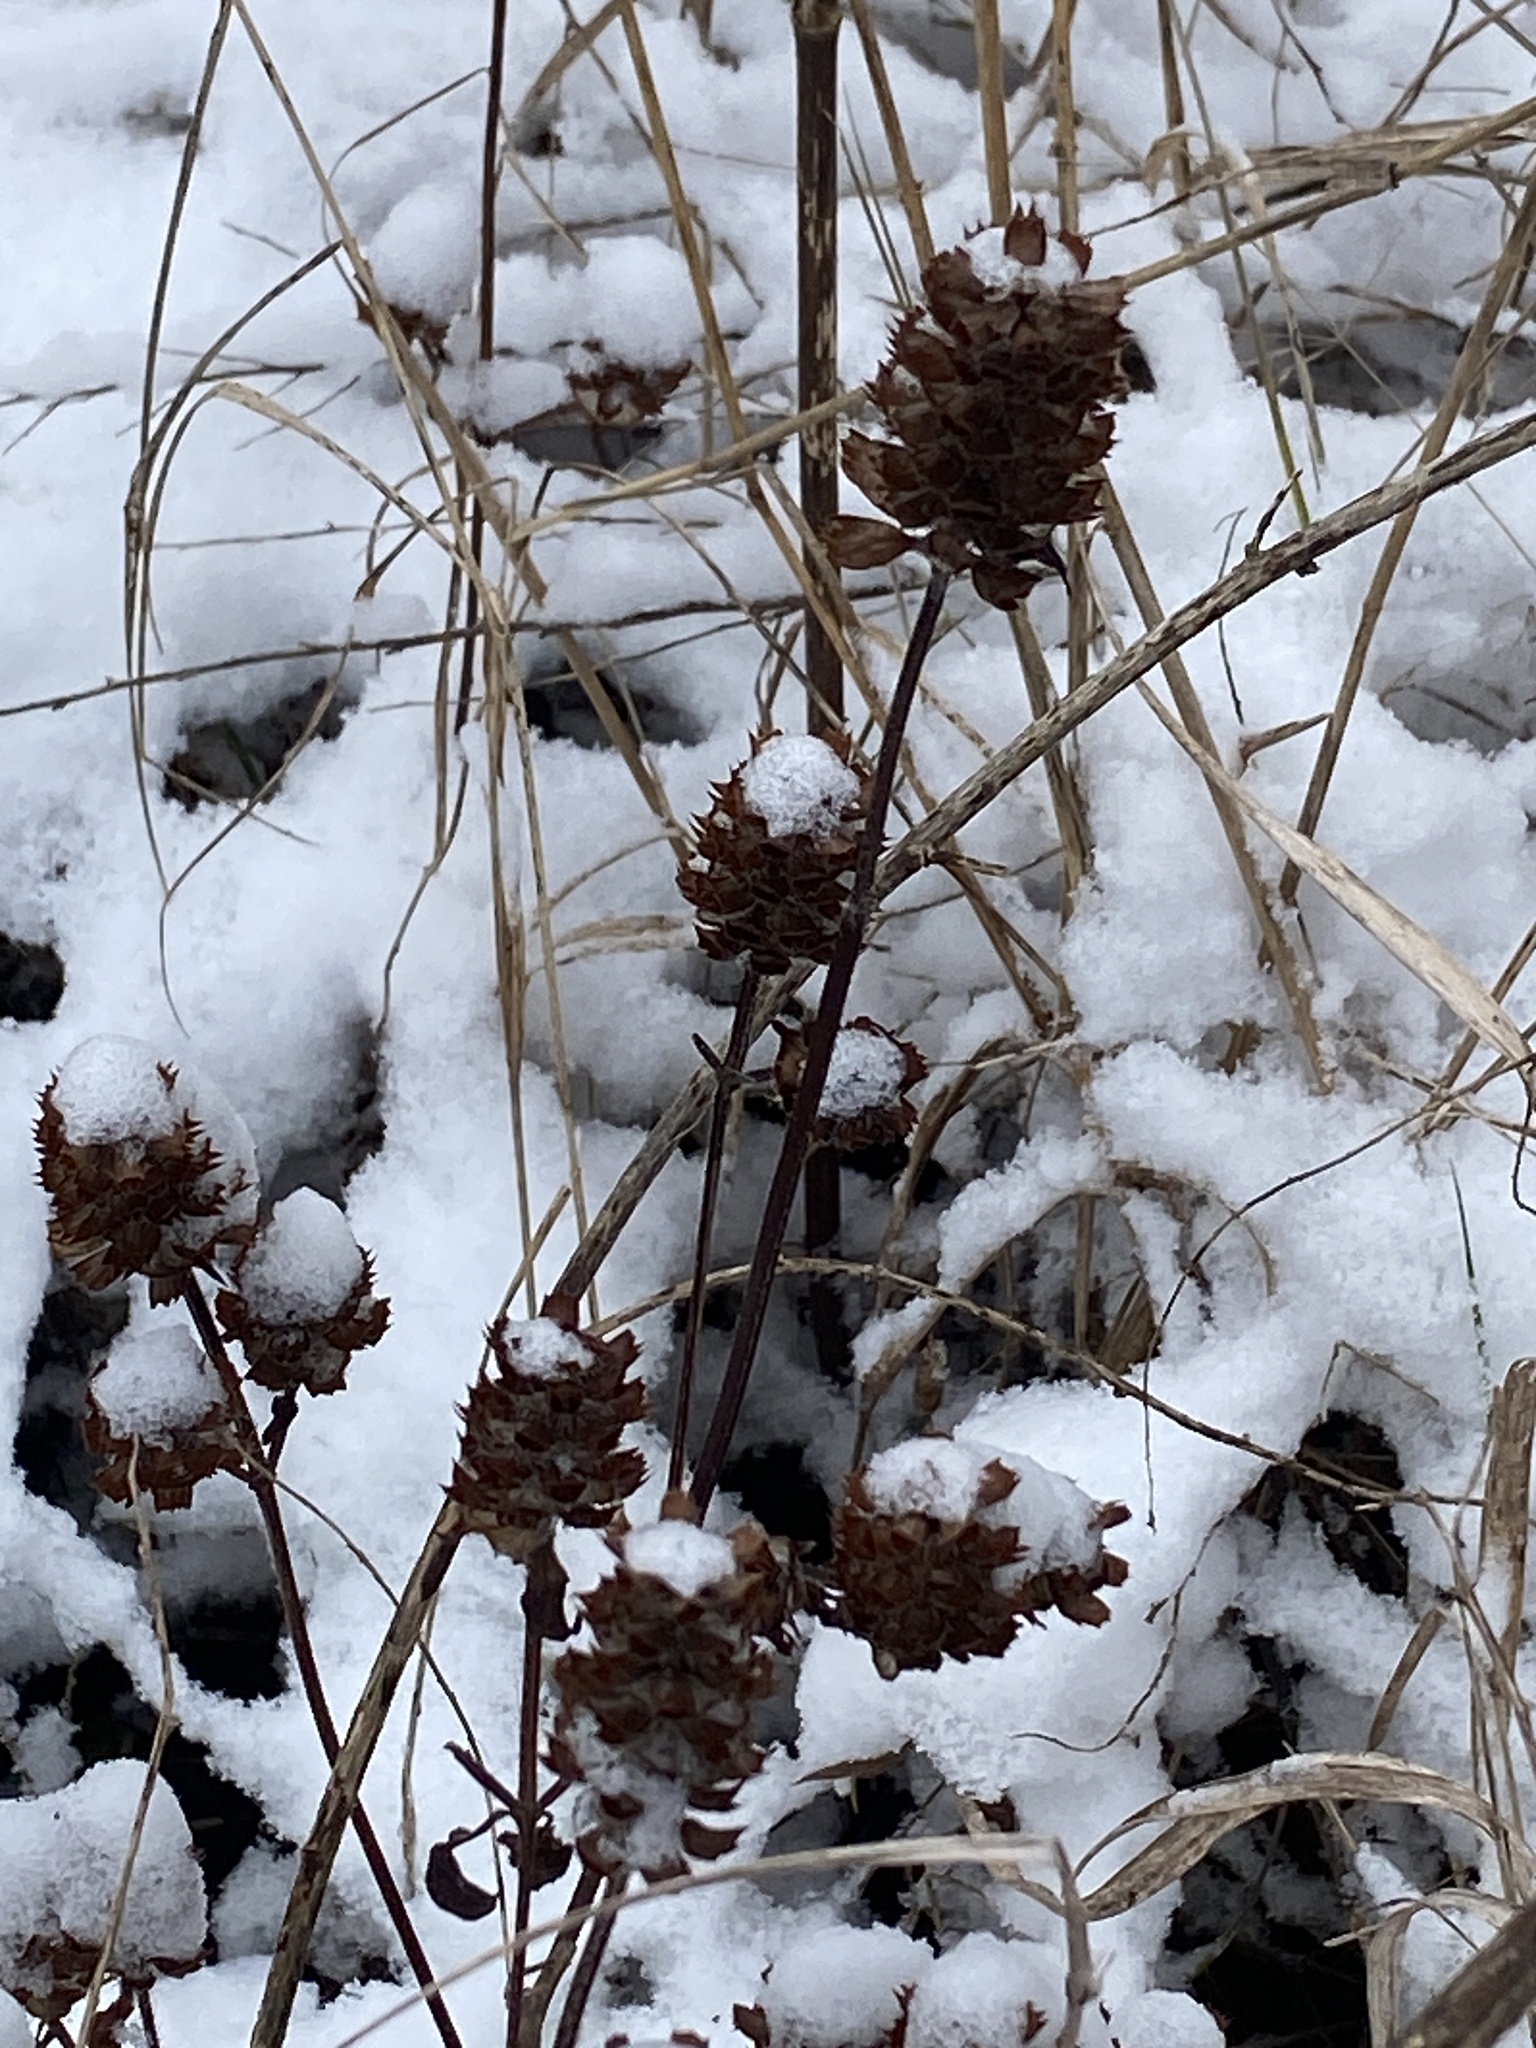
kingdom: Plantae
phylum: Tracheophyta
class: Magnoliopsida
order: Lamiales
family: Lamiaceae
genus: Prunella
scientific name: Prunella vulgaris
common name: Heal-all
